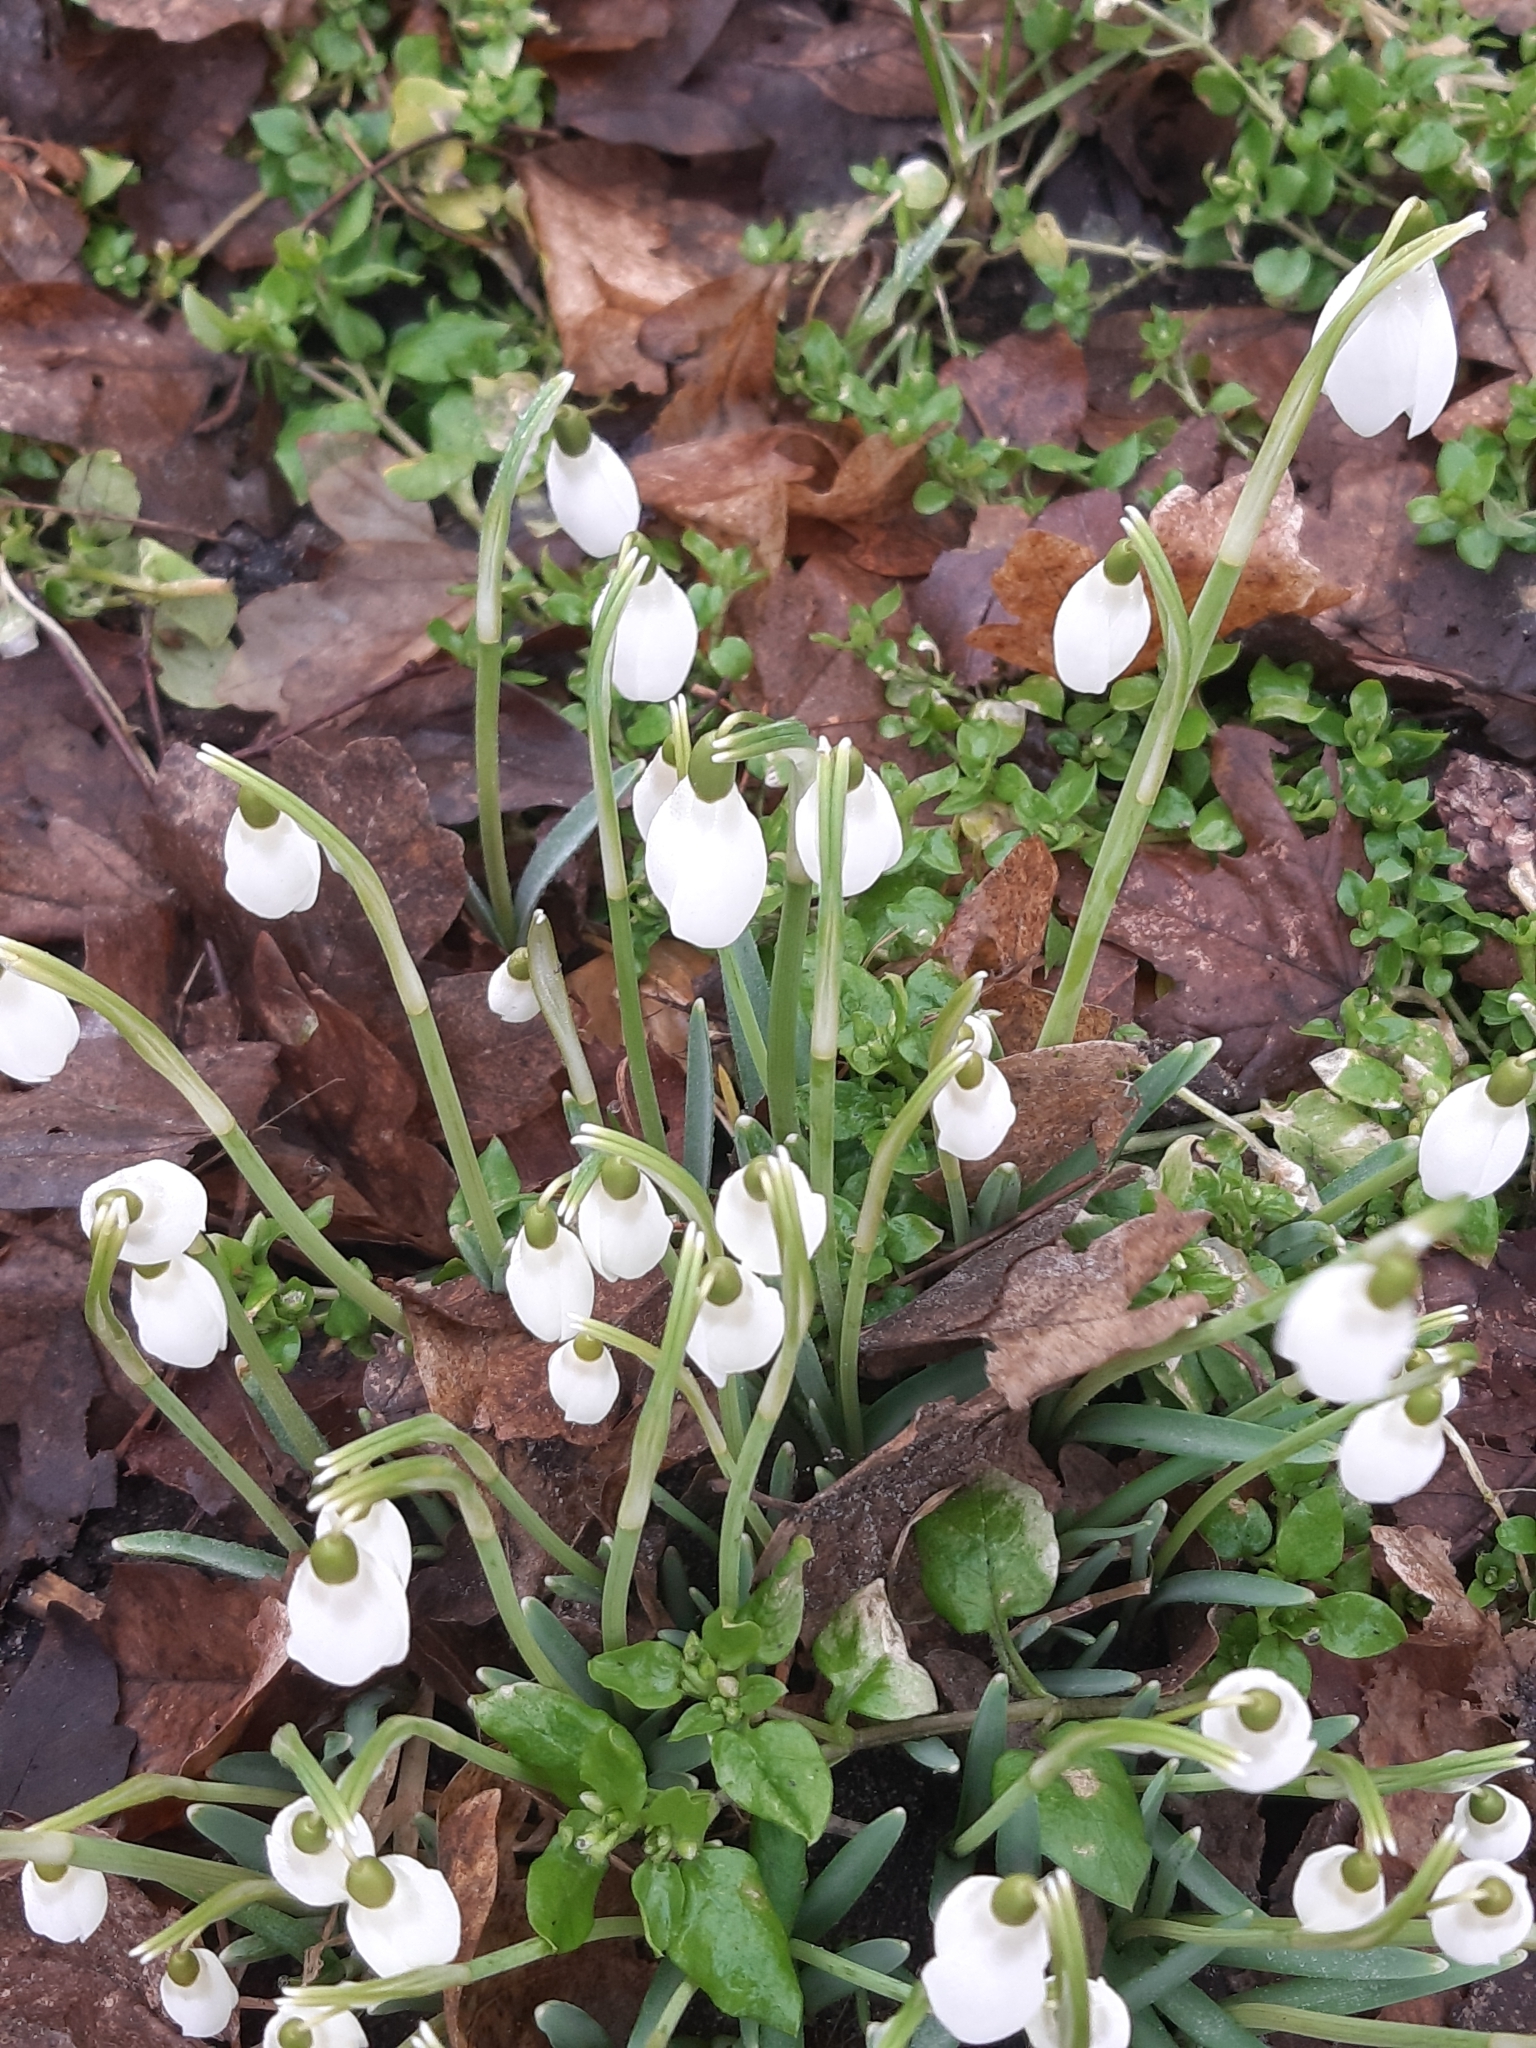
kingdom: Plantae
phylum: Tracheophyta
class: Liliopsida
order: Asparagales
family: Amaryllidaceae
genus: Galanthus
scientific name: Galanthus nivalis
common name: Snowdrop
